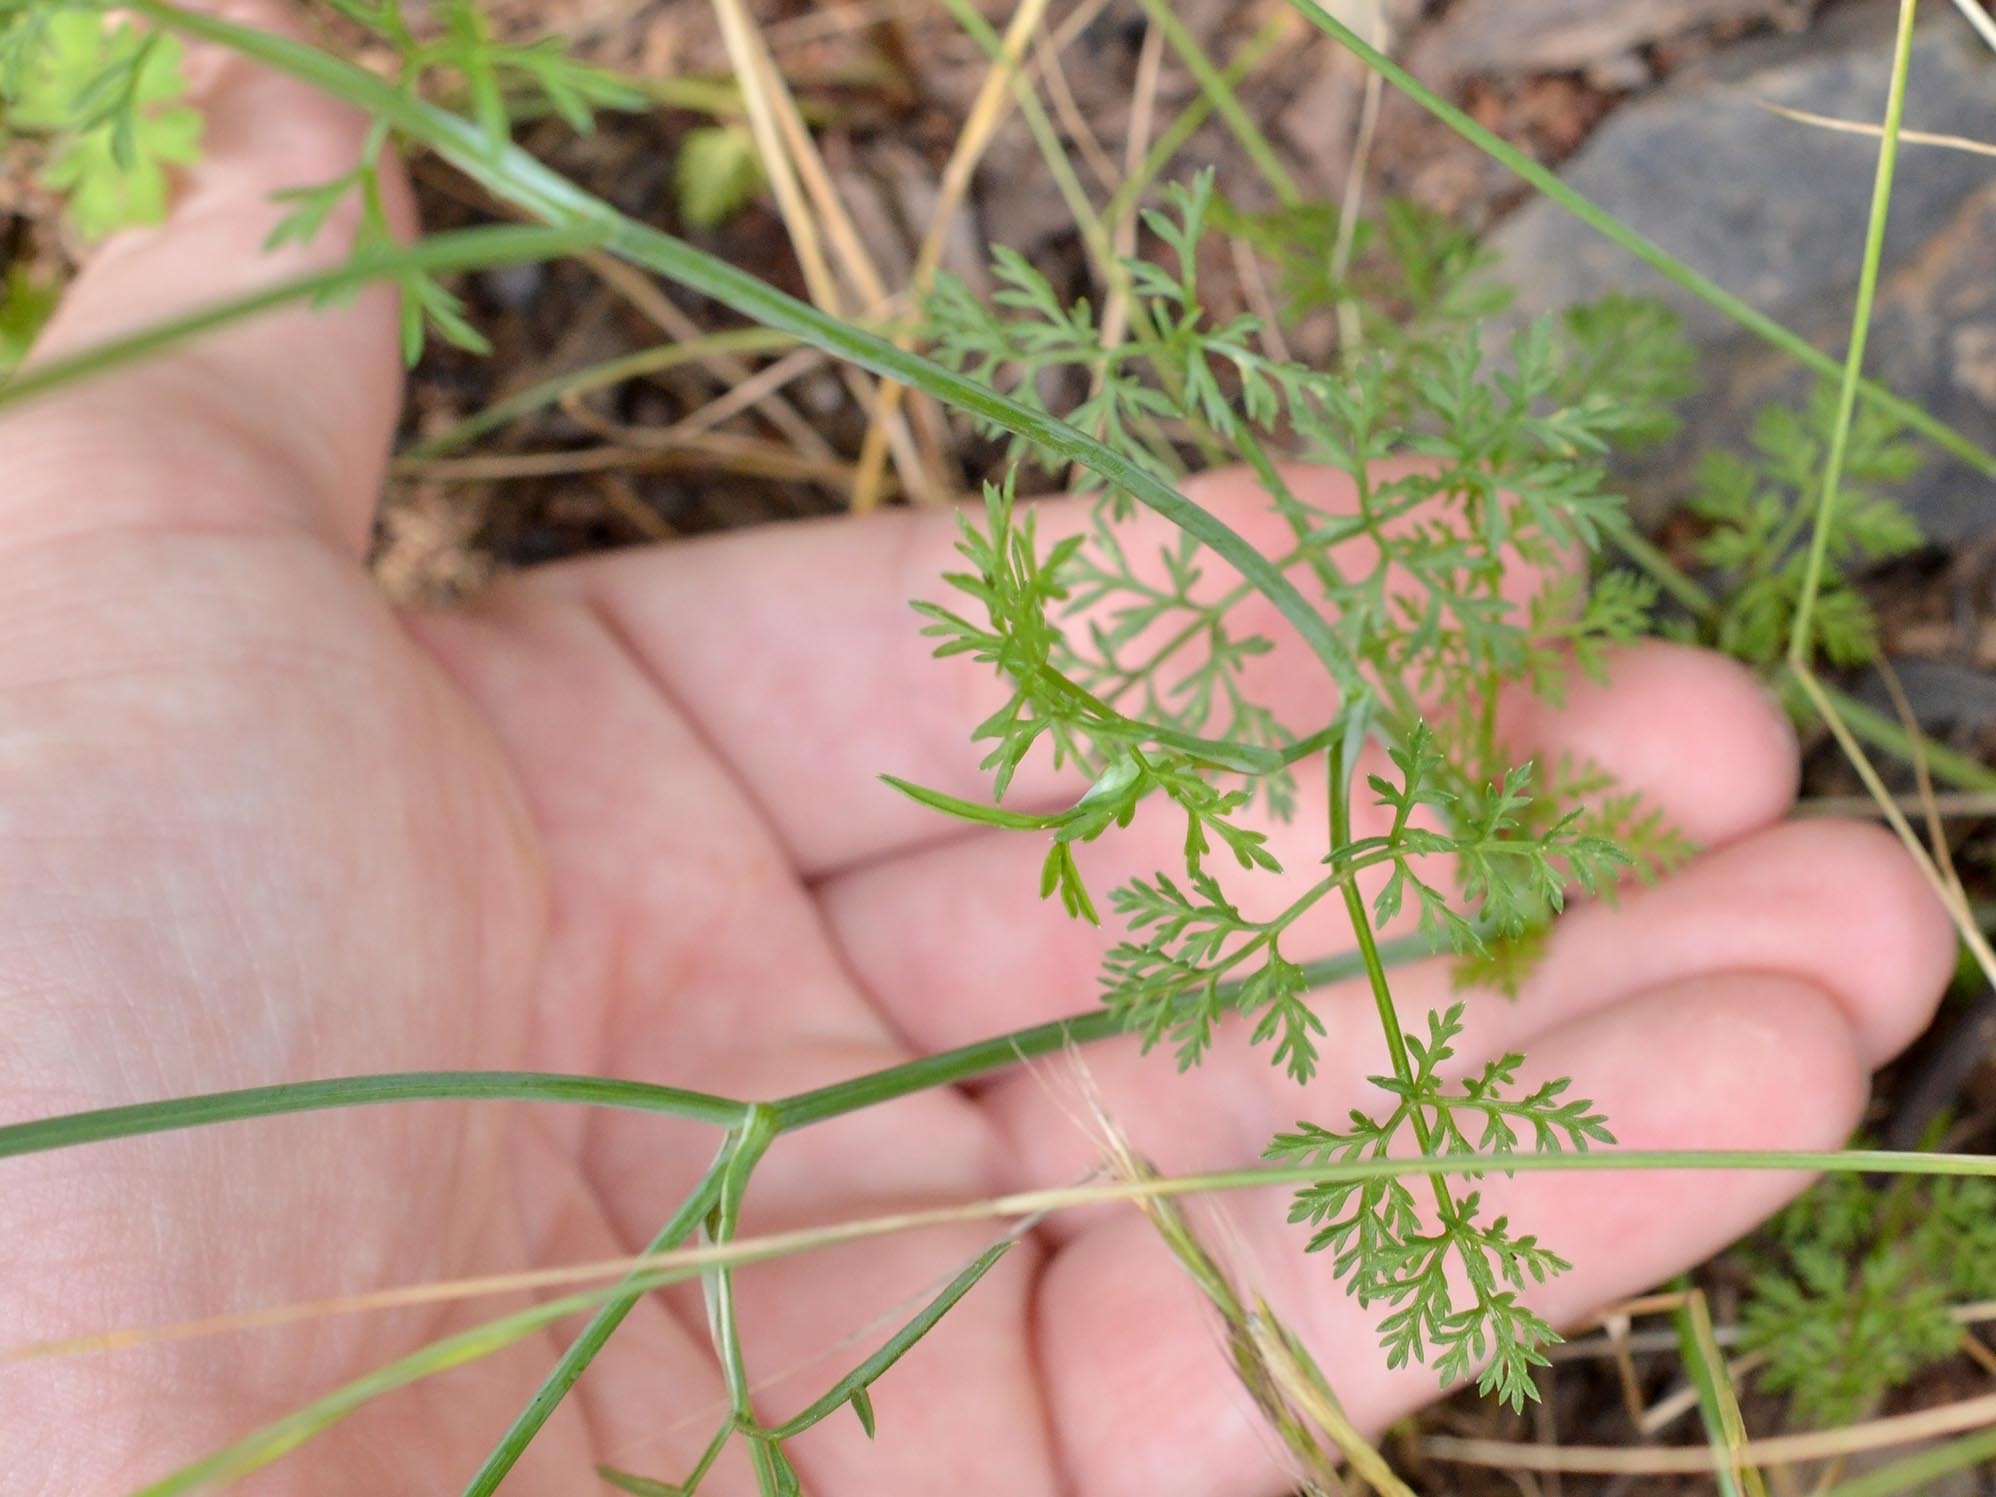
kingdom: Plantae
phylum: Tracheophyta
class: Magnoliopsida
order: Apiales
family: Apiaceae
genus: Orlaya
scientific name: Orlaya grandiflora
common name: White lace flower
